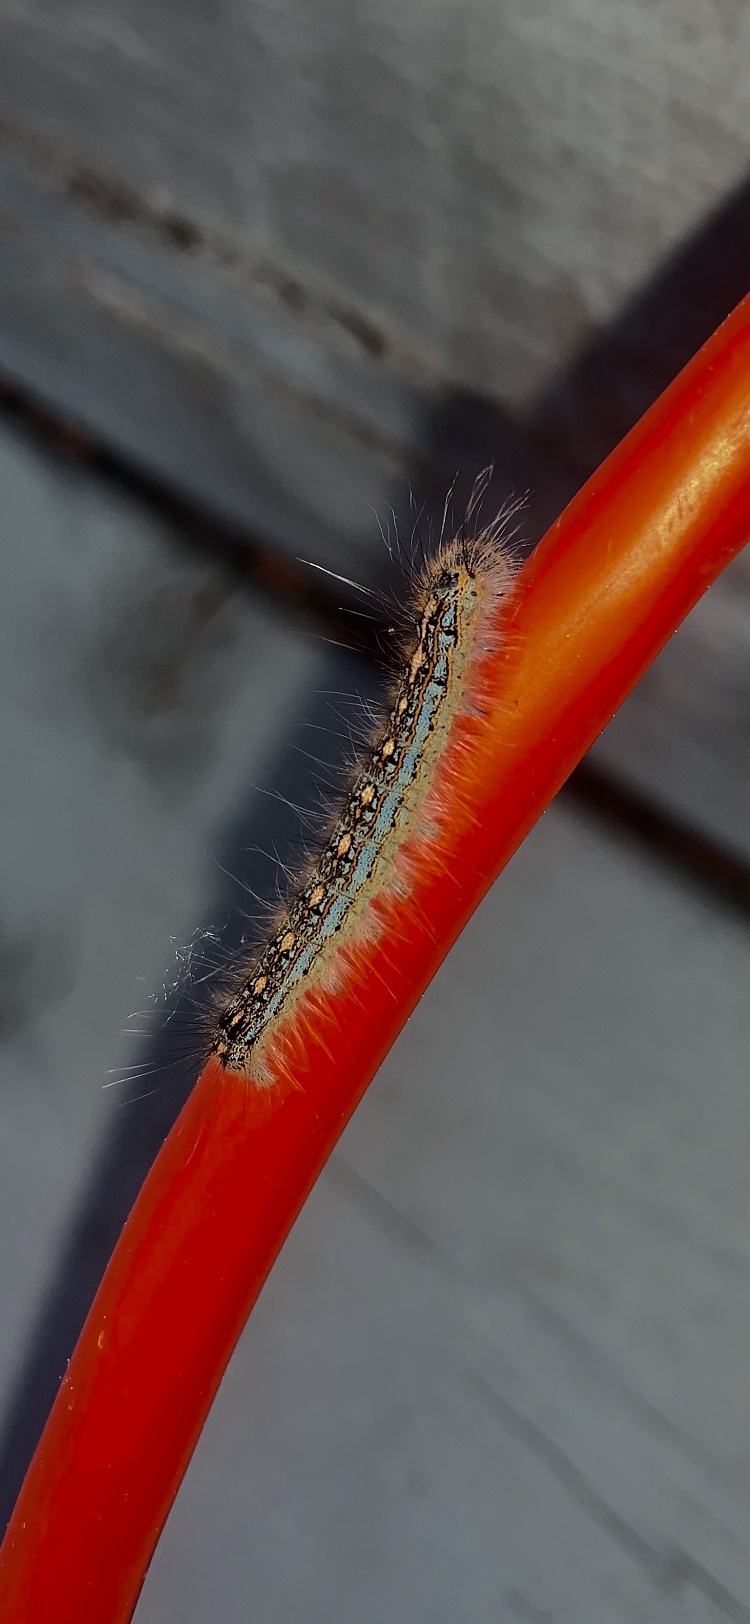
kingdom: Animalia
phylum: Arthropoda
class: Insecta
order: Lepidoptera
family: Lasiocampidae
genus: Malacosoma
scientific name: Malacosoma disstria
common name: Forest tent caterpillar
